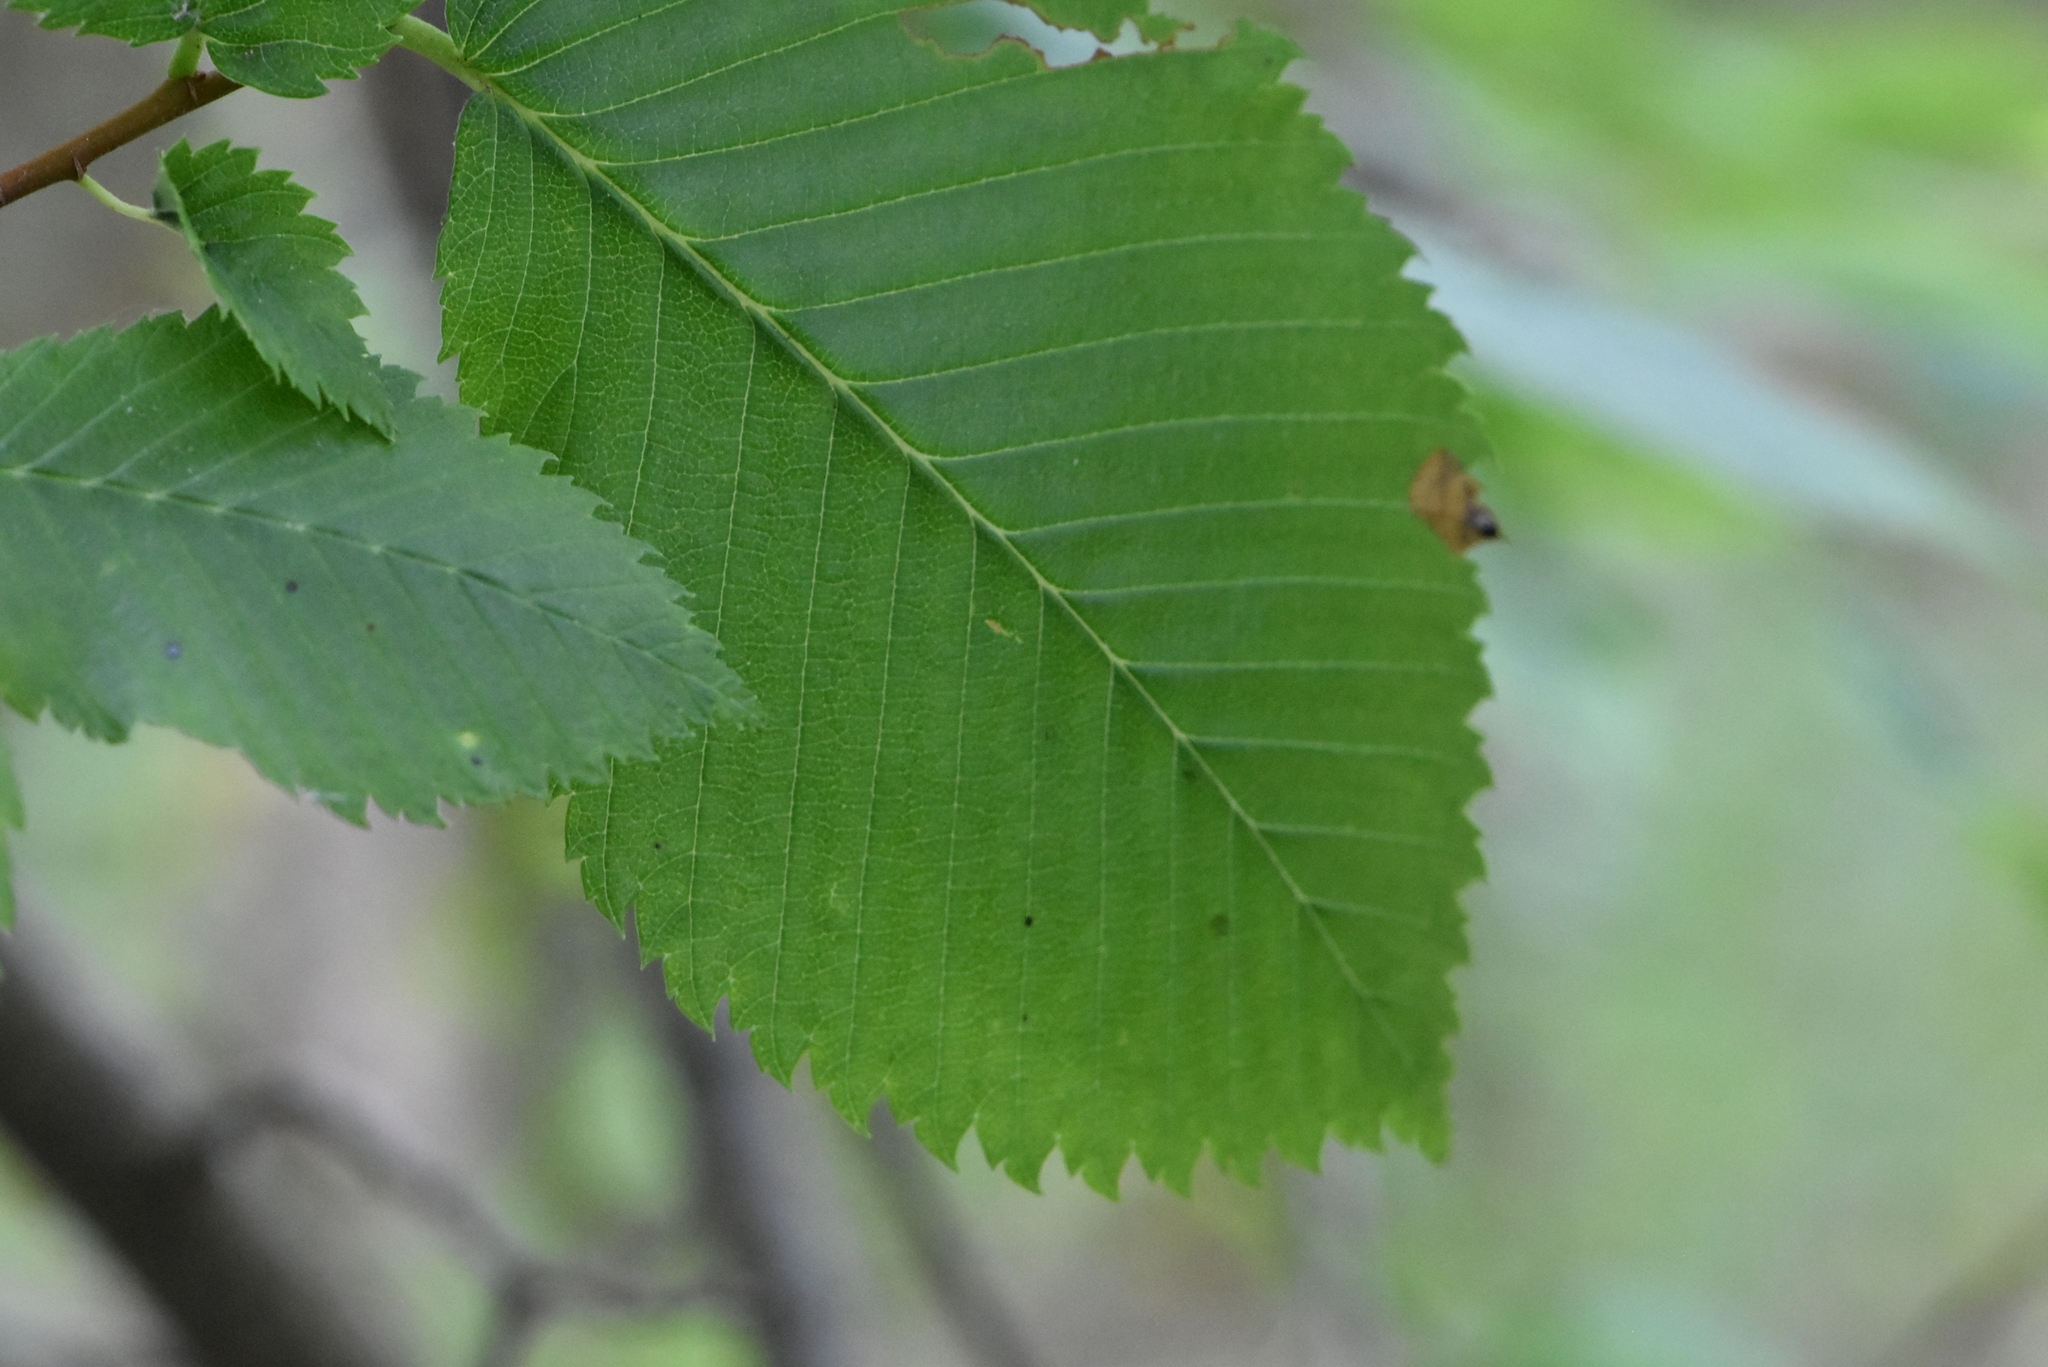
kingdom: Plantae
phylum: Tracheophyta
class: Magnoliopsida
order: Rosales
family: Ulmaceae
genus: Ulmus
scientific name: Ulmus laevis
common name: European white-elm
